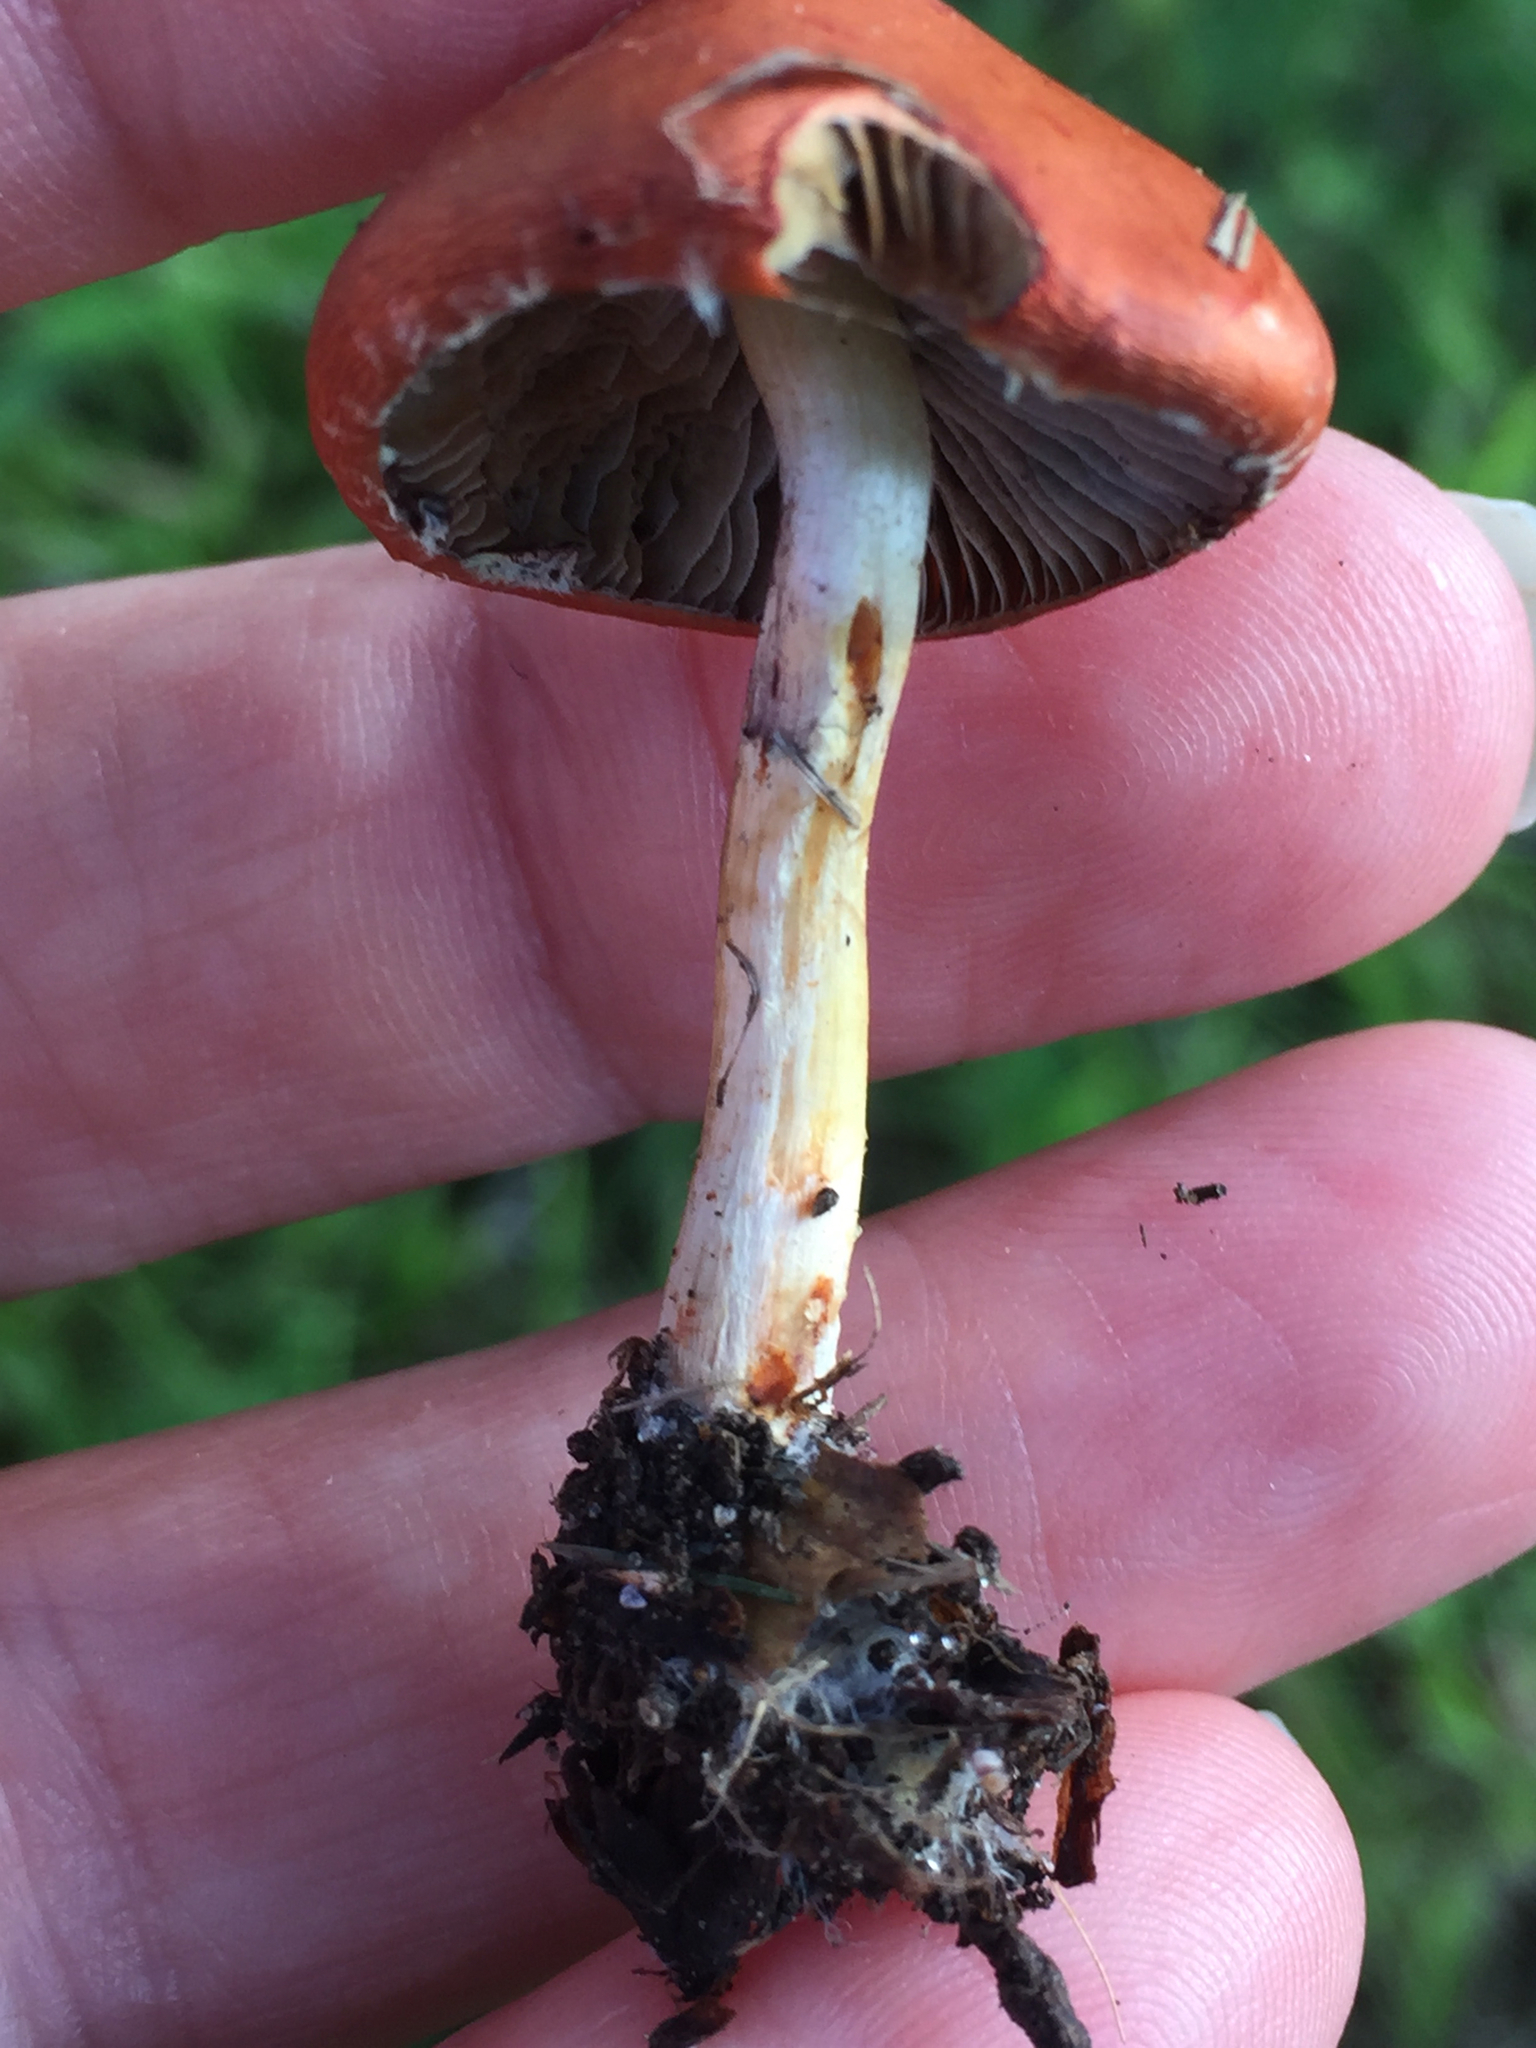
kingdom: Fungi
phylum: Basidiomycota
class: Agaricomycetes
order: Agaricales
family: Strophariaceae
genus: Leratiomyces
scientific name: Leratiomyces ceres
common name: Redlead roundhead
